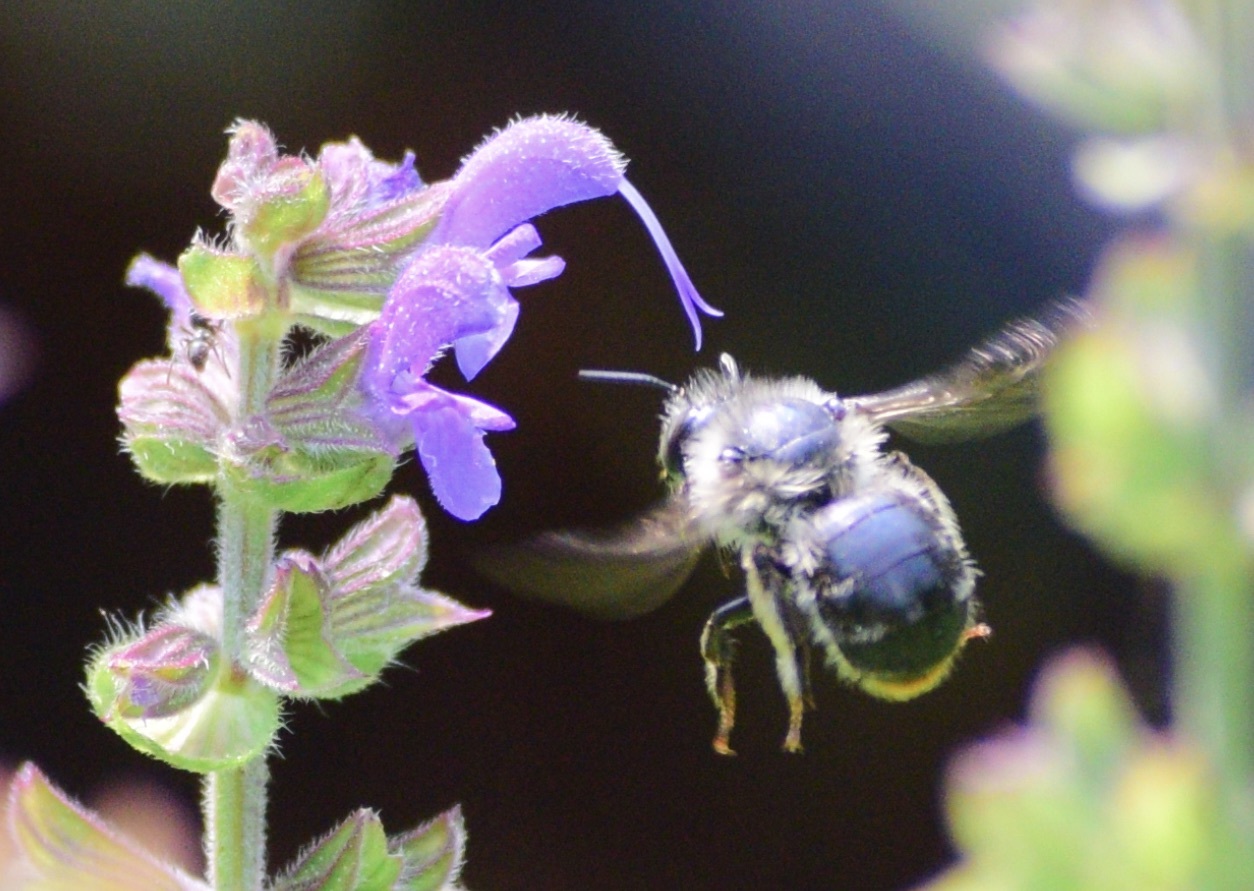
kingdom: Animalia
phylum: Arthropoda
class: Insecta
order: Hymenoptera
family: Apidae
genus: Anthophora
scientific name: Anthophora terminalis
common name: Orange-tipped wood-digger bee
